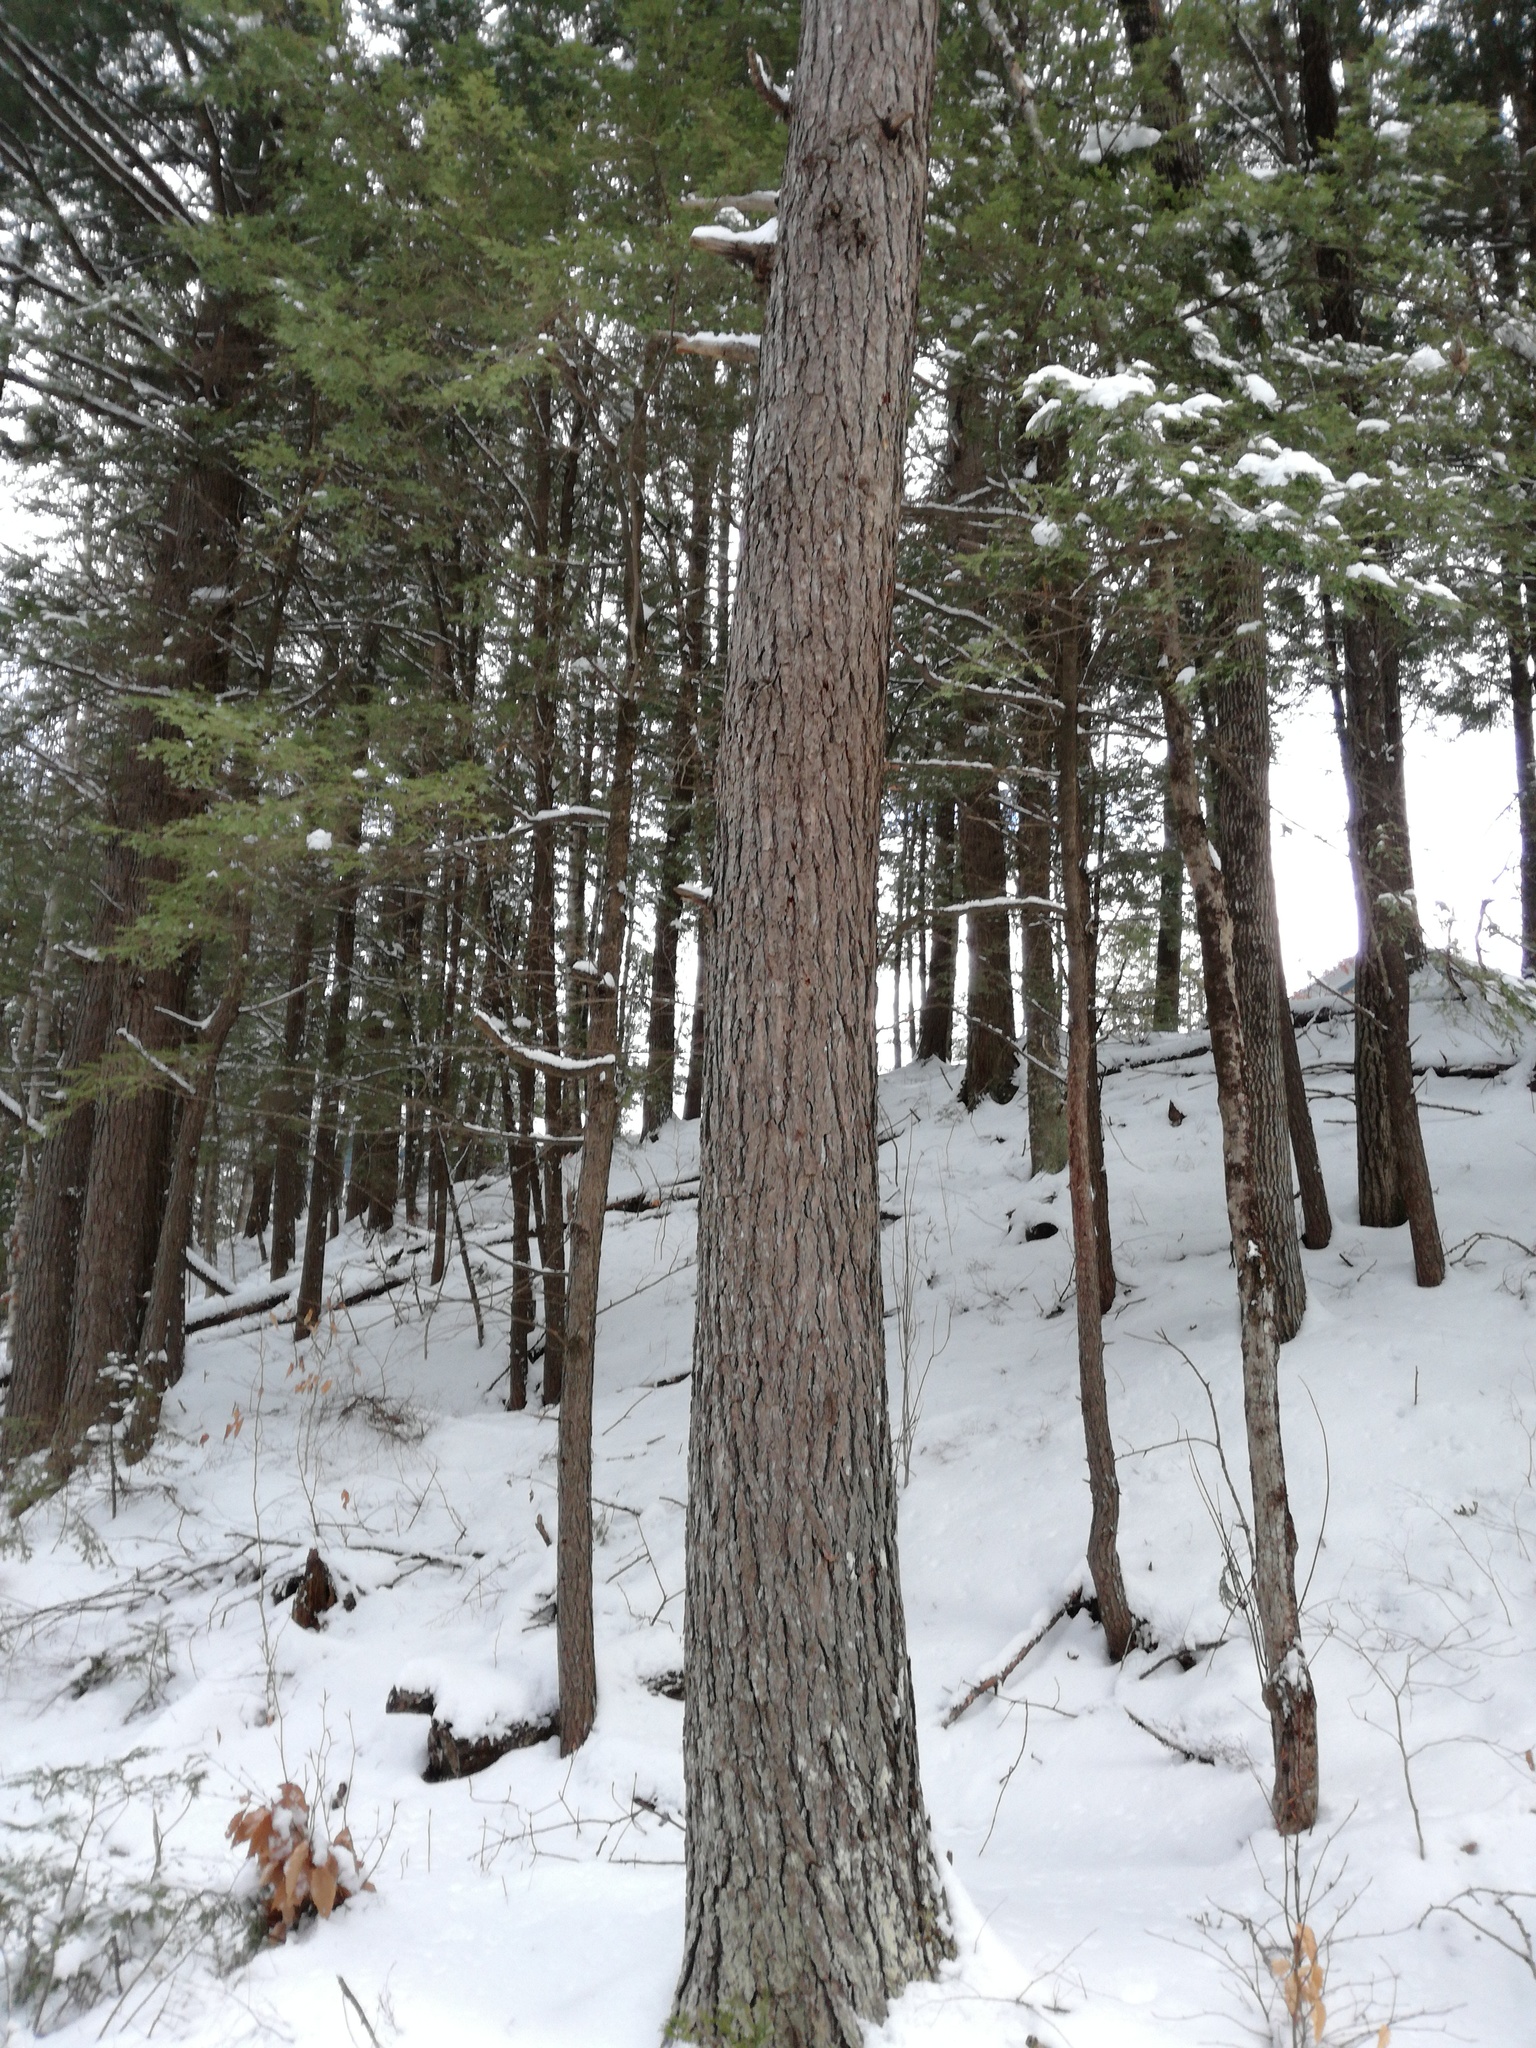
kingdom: Plantae
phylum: Tracheophyta
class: Pinopsida
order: Pinales
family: Pinaceae
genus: Tsuga
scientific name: Tsuga canadensis
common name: Eastern hemlock
